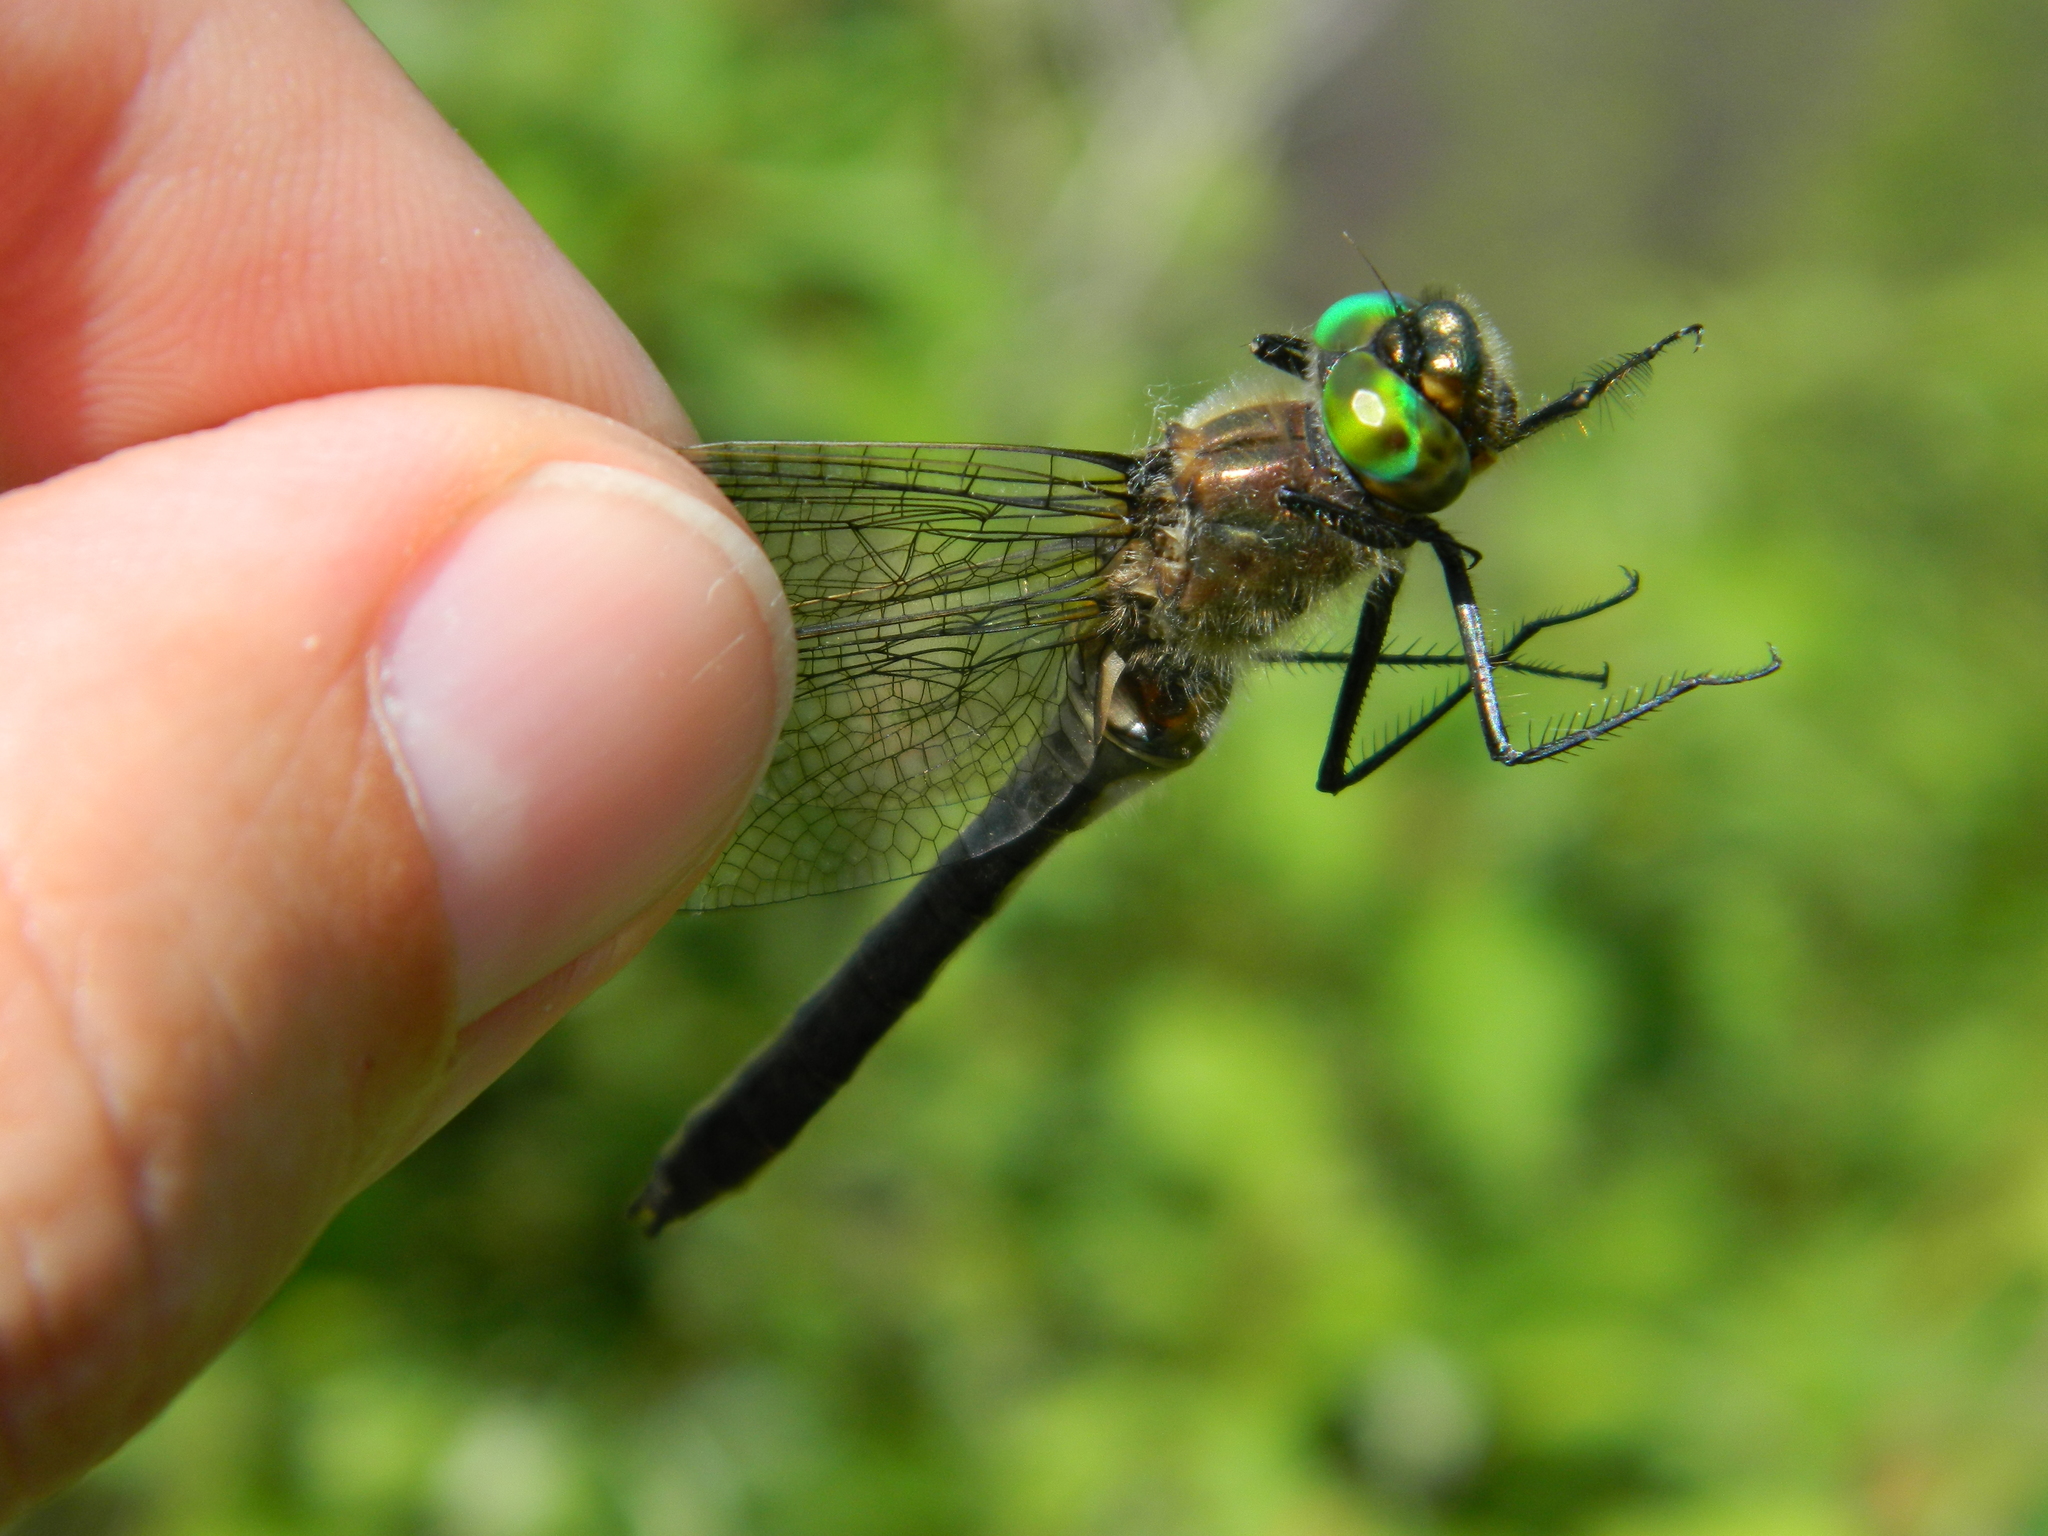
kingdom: Animalia
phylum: Arthropoda
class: Insecta
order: Odonata
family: Corduliidae
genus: Cordulia
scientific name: Cordulia shurtleffii
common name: American emerald
